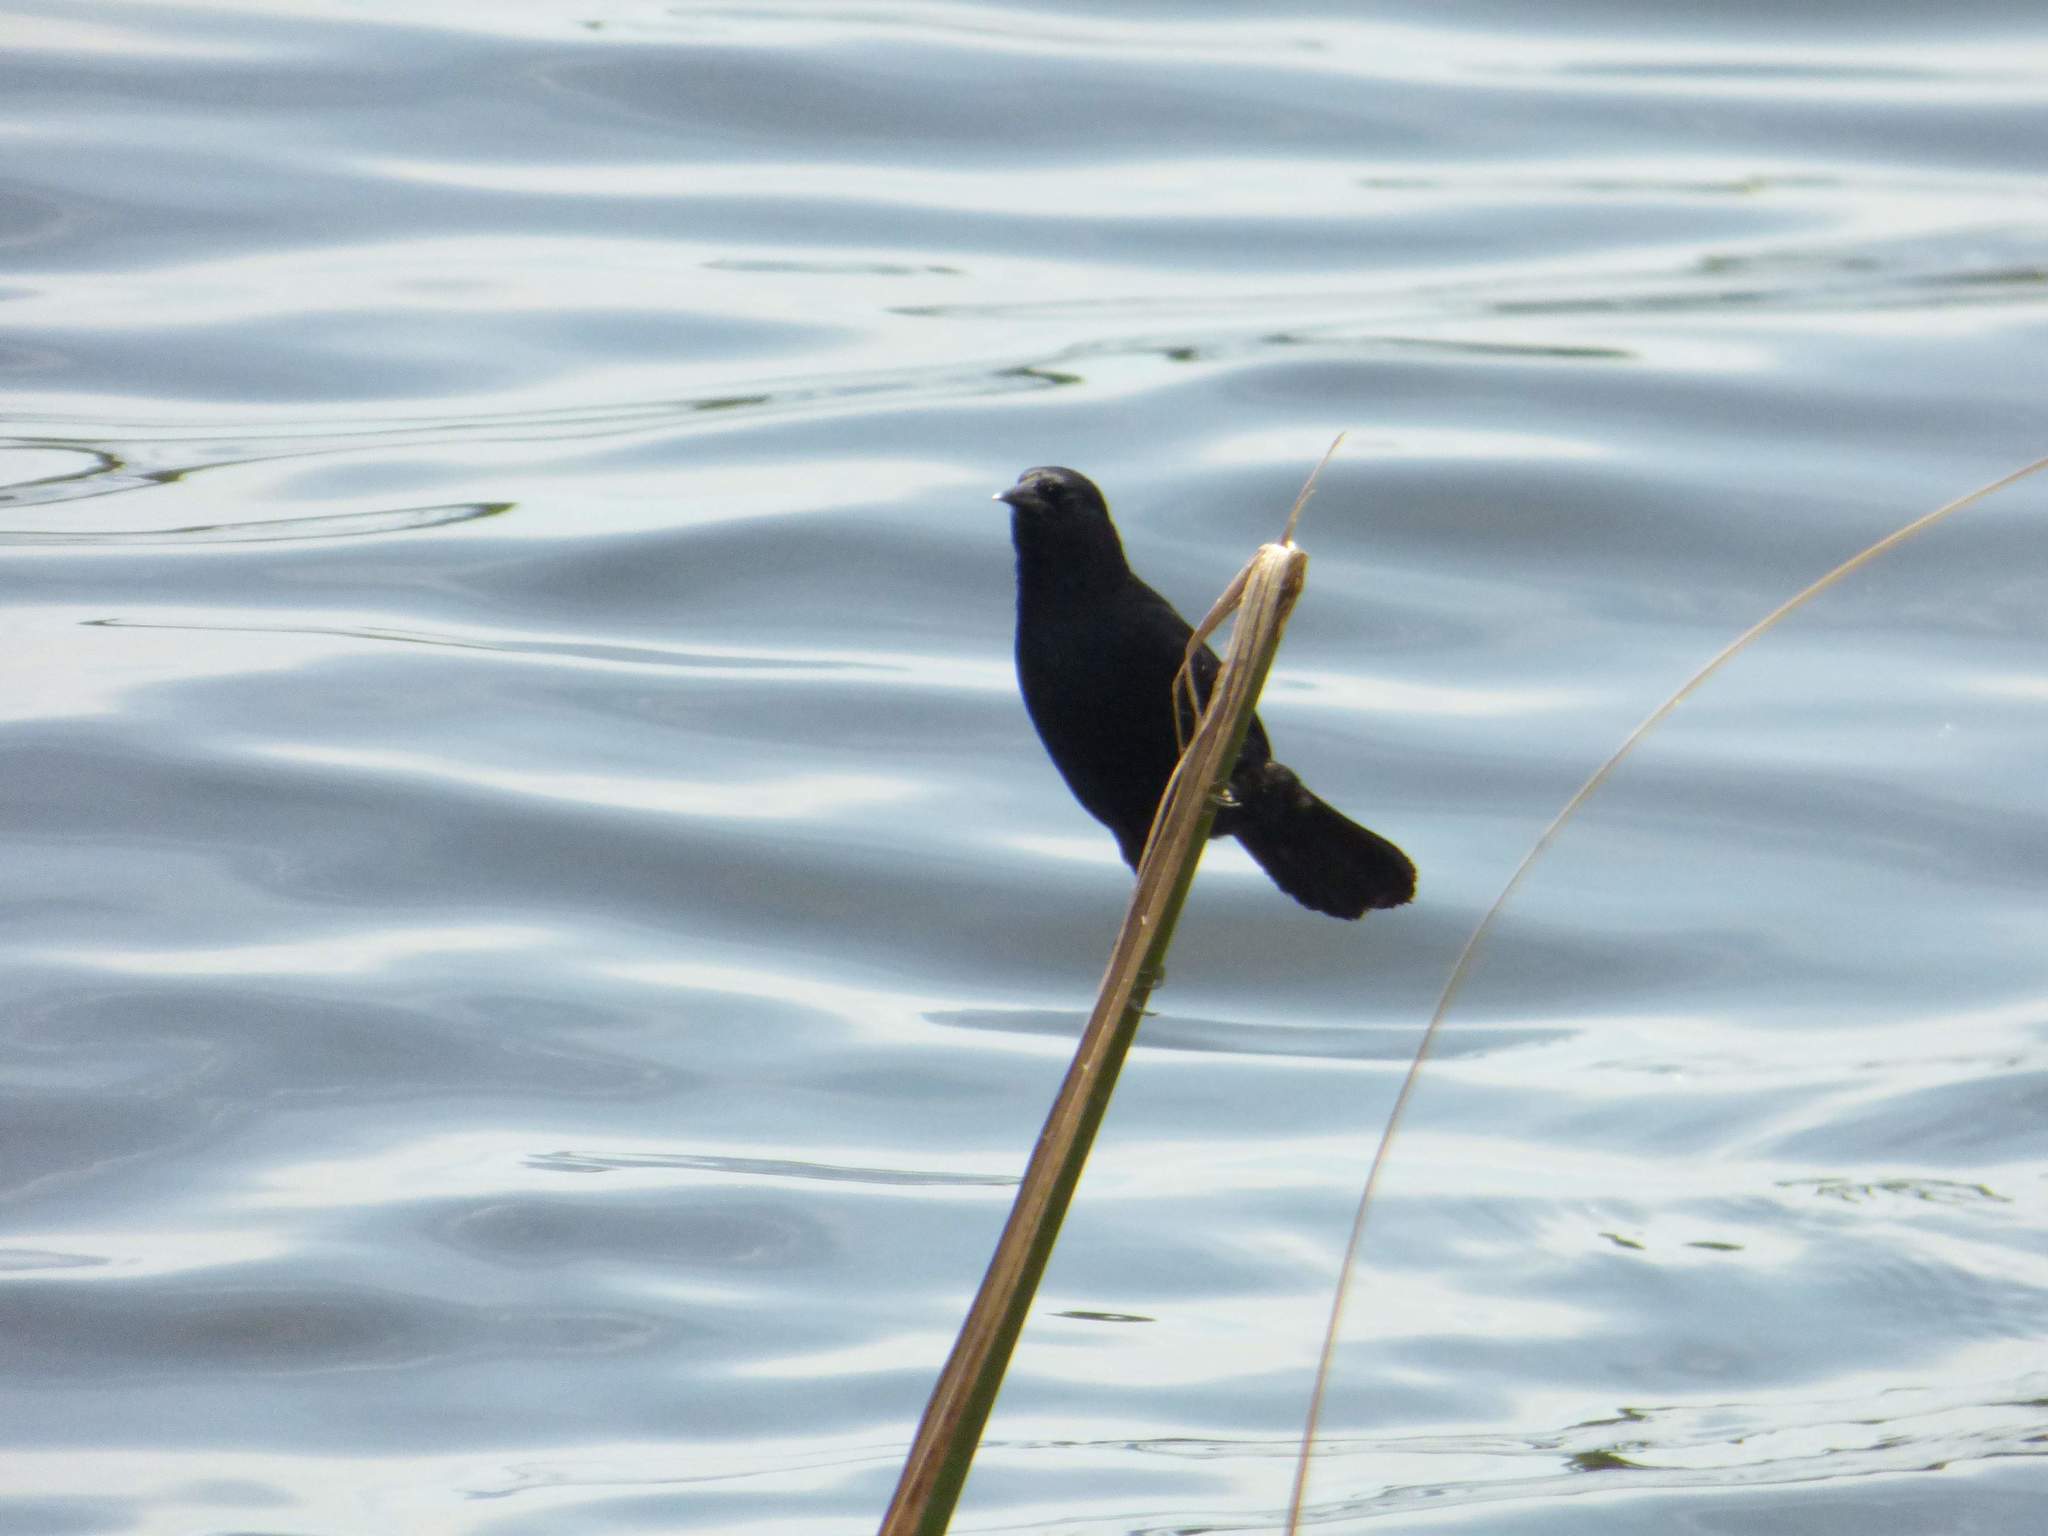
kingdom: Animalia
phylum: Chordata
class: Aves
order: Passeriformes
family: Icteridae
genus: Agelasticus
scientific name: Agelasticus cyanopus
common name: Unicolored blackbird
